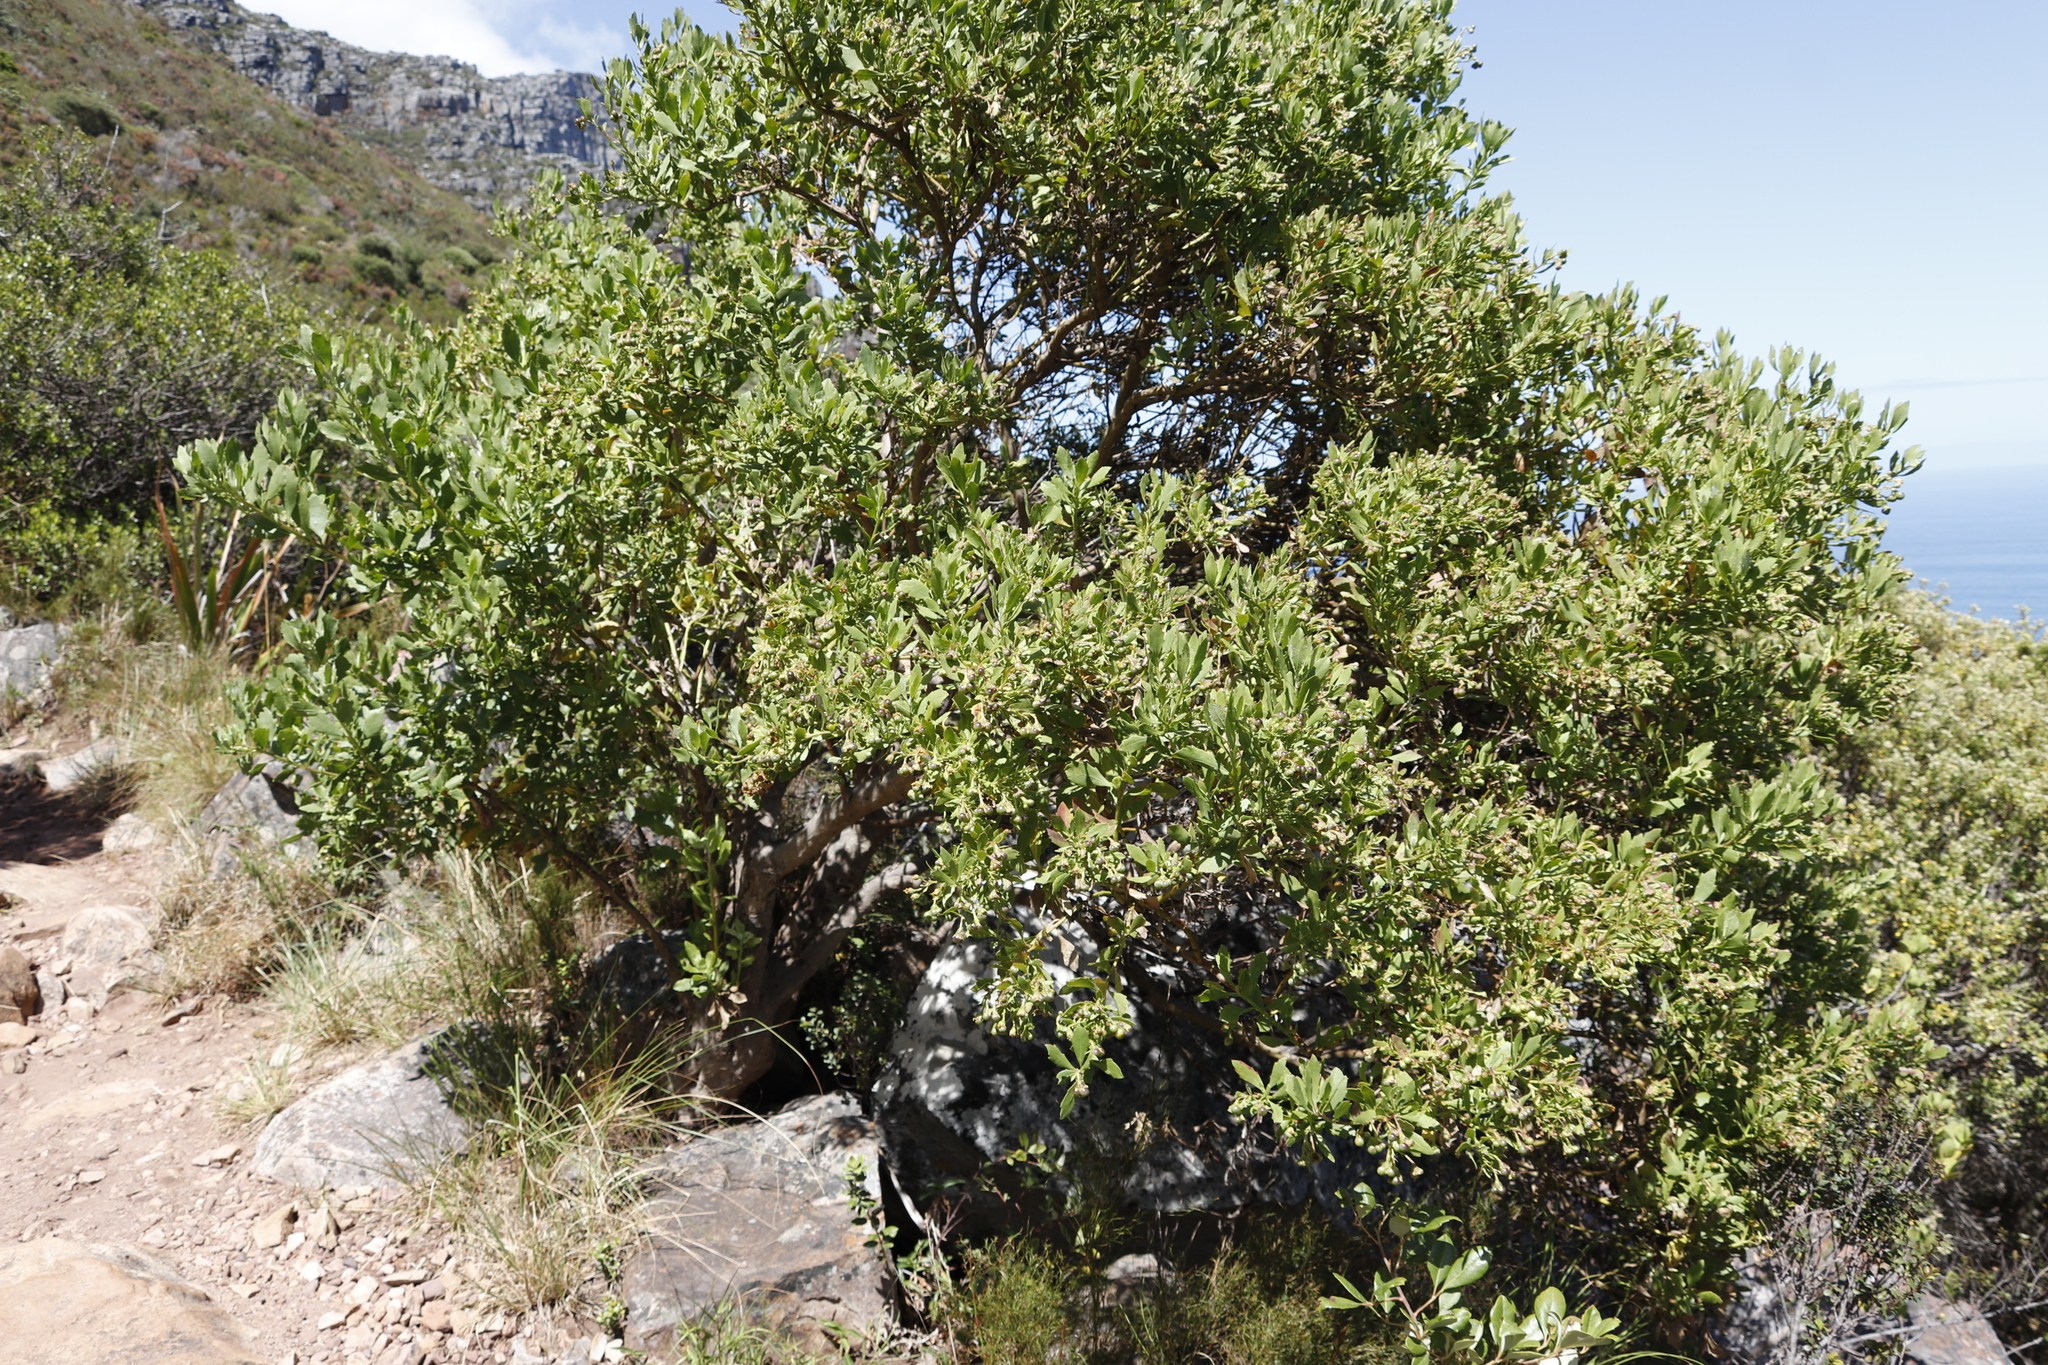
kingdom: Plantae
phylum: Tracheophyta
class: Magnoliopsida
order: Asterales
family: Asteraceae
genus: Osteospermum
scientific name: Osteospermum moniliferum
